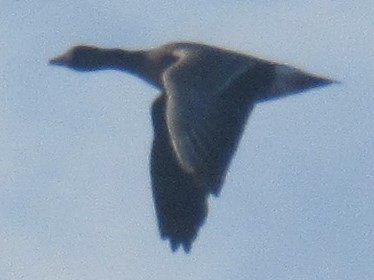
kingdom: Animalia
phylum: Chordata
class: Aves
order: Anseriformes
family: Anatidae
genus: Anser
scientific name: Anser albifrons
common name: Greater white-fronted goose
